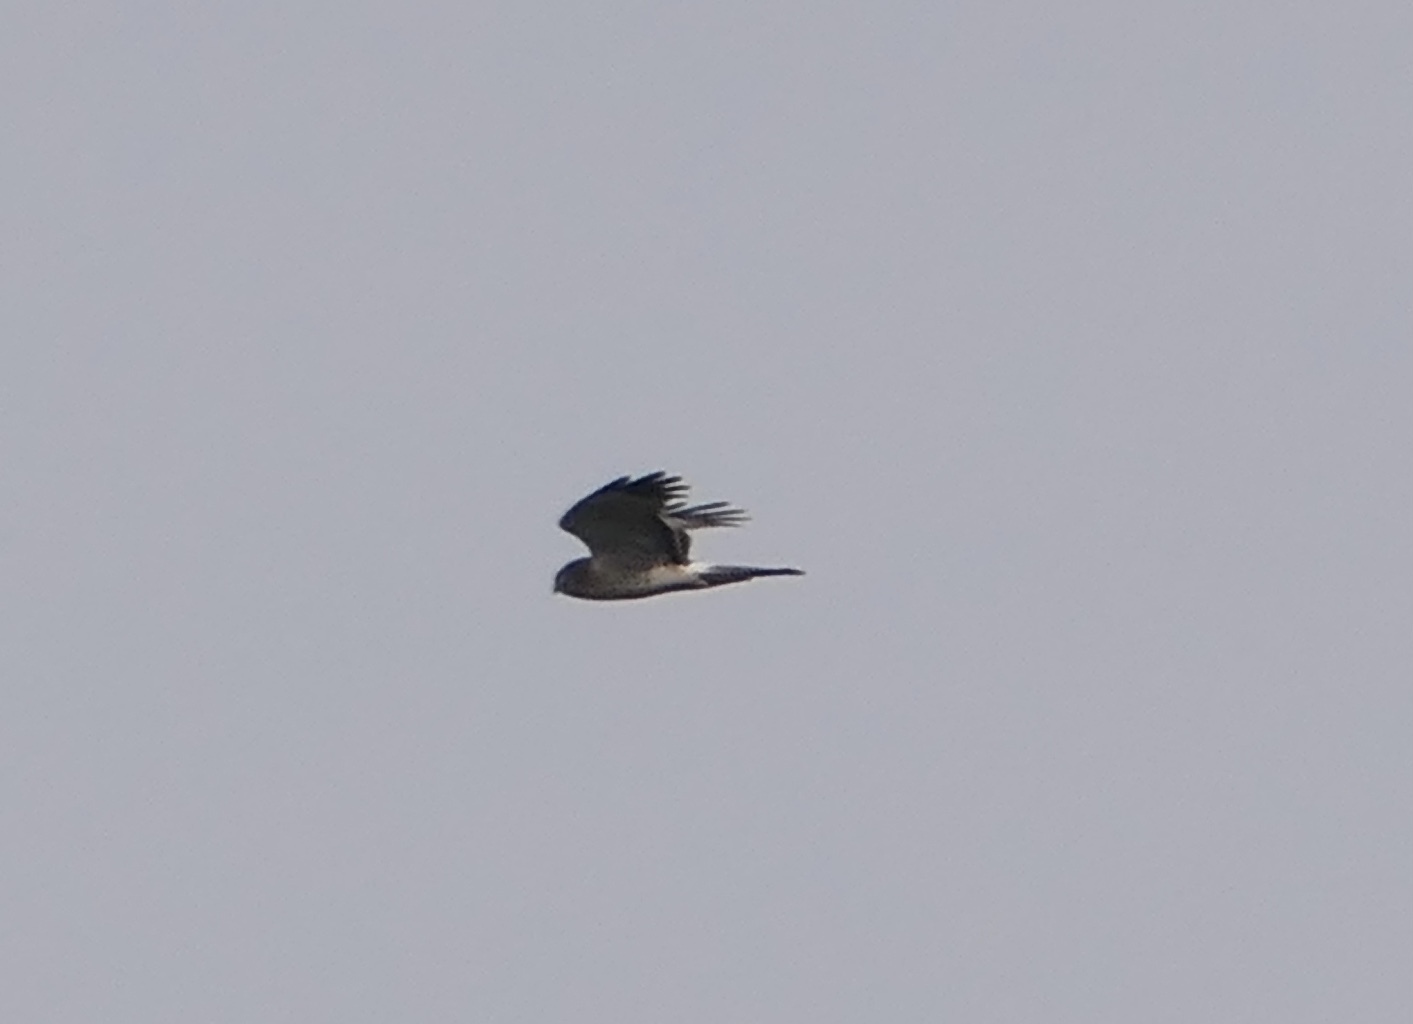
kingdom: Animalia
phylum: Chordata
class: Aves
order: Accipitriformes
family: Accipitridae
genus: Circus
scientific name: Circus cyaneus
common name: Hen harrier
